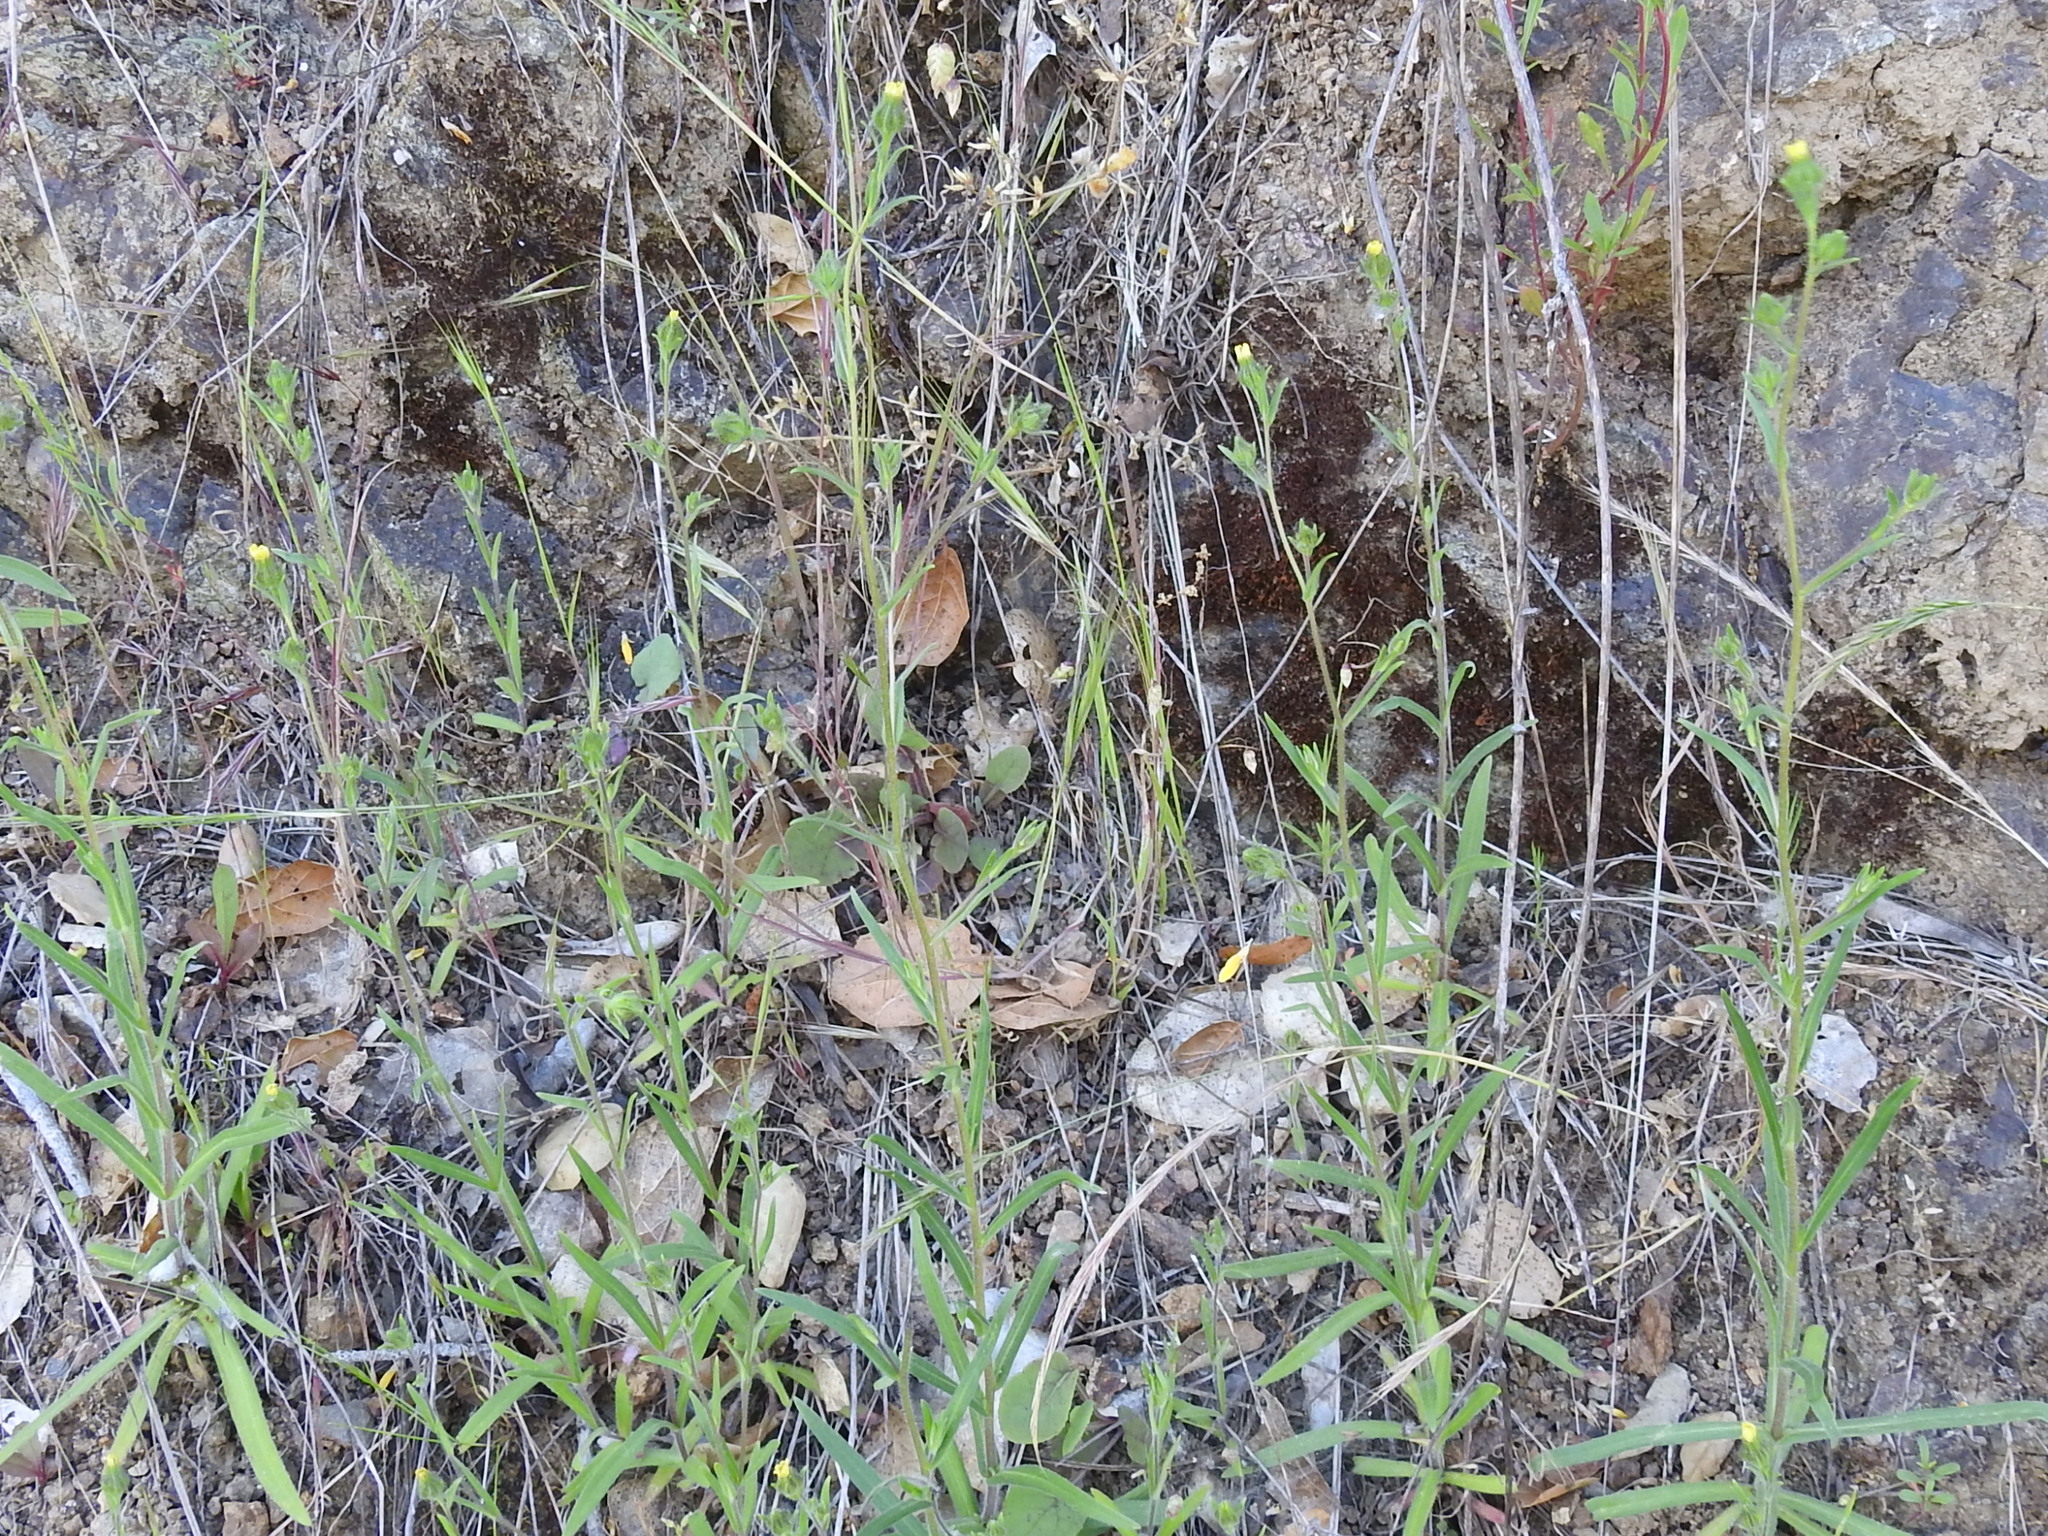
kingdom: Plantae
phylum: Tracheophyta
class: Magnoliopsida
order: Asterales
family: Asteraceae
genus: Madia
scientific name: Madia gracilis
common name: Grassy tarweed
